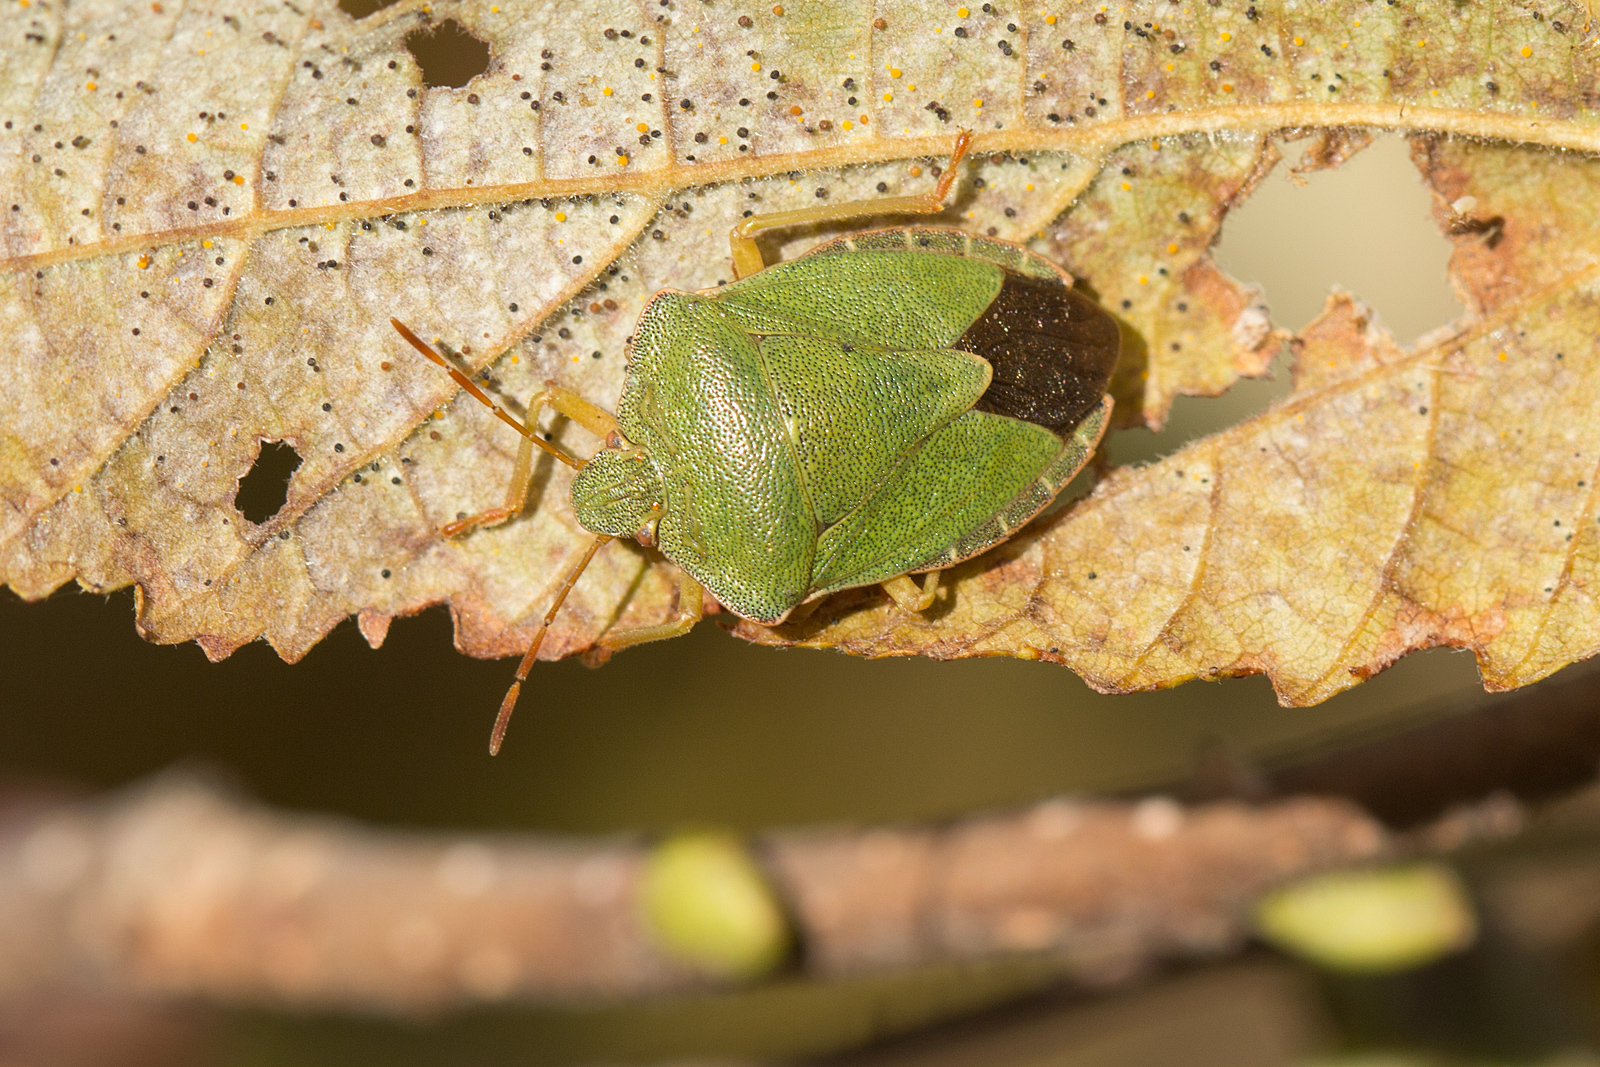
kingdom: Animalia
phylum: Arthropoda
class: Insecta
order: Hemiptera
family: Pentatomidae
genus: Palomena
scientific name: Palomena prasina
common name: Green shieldbug
